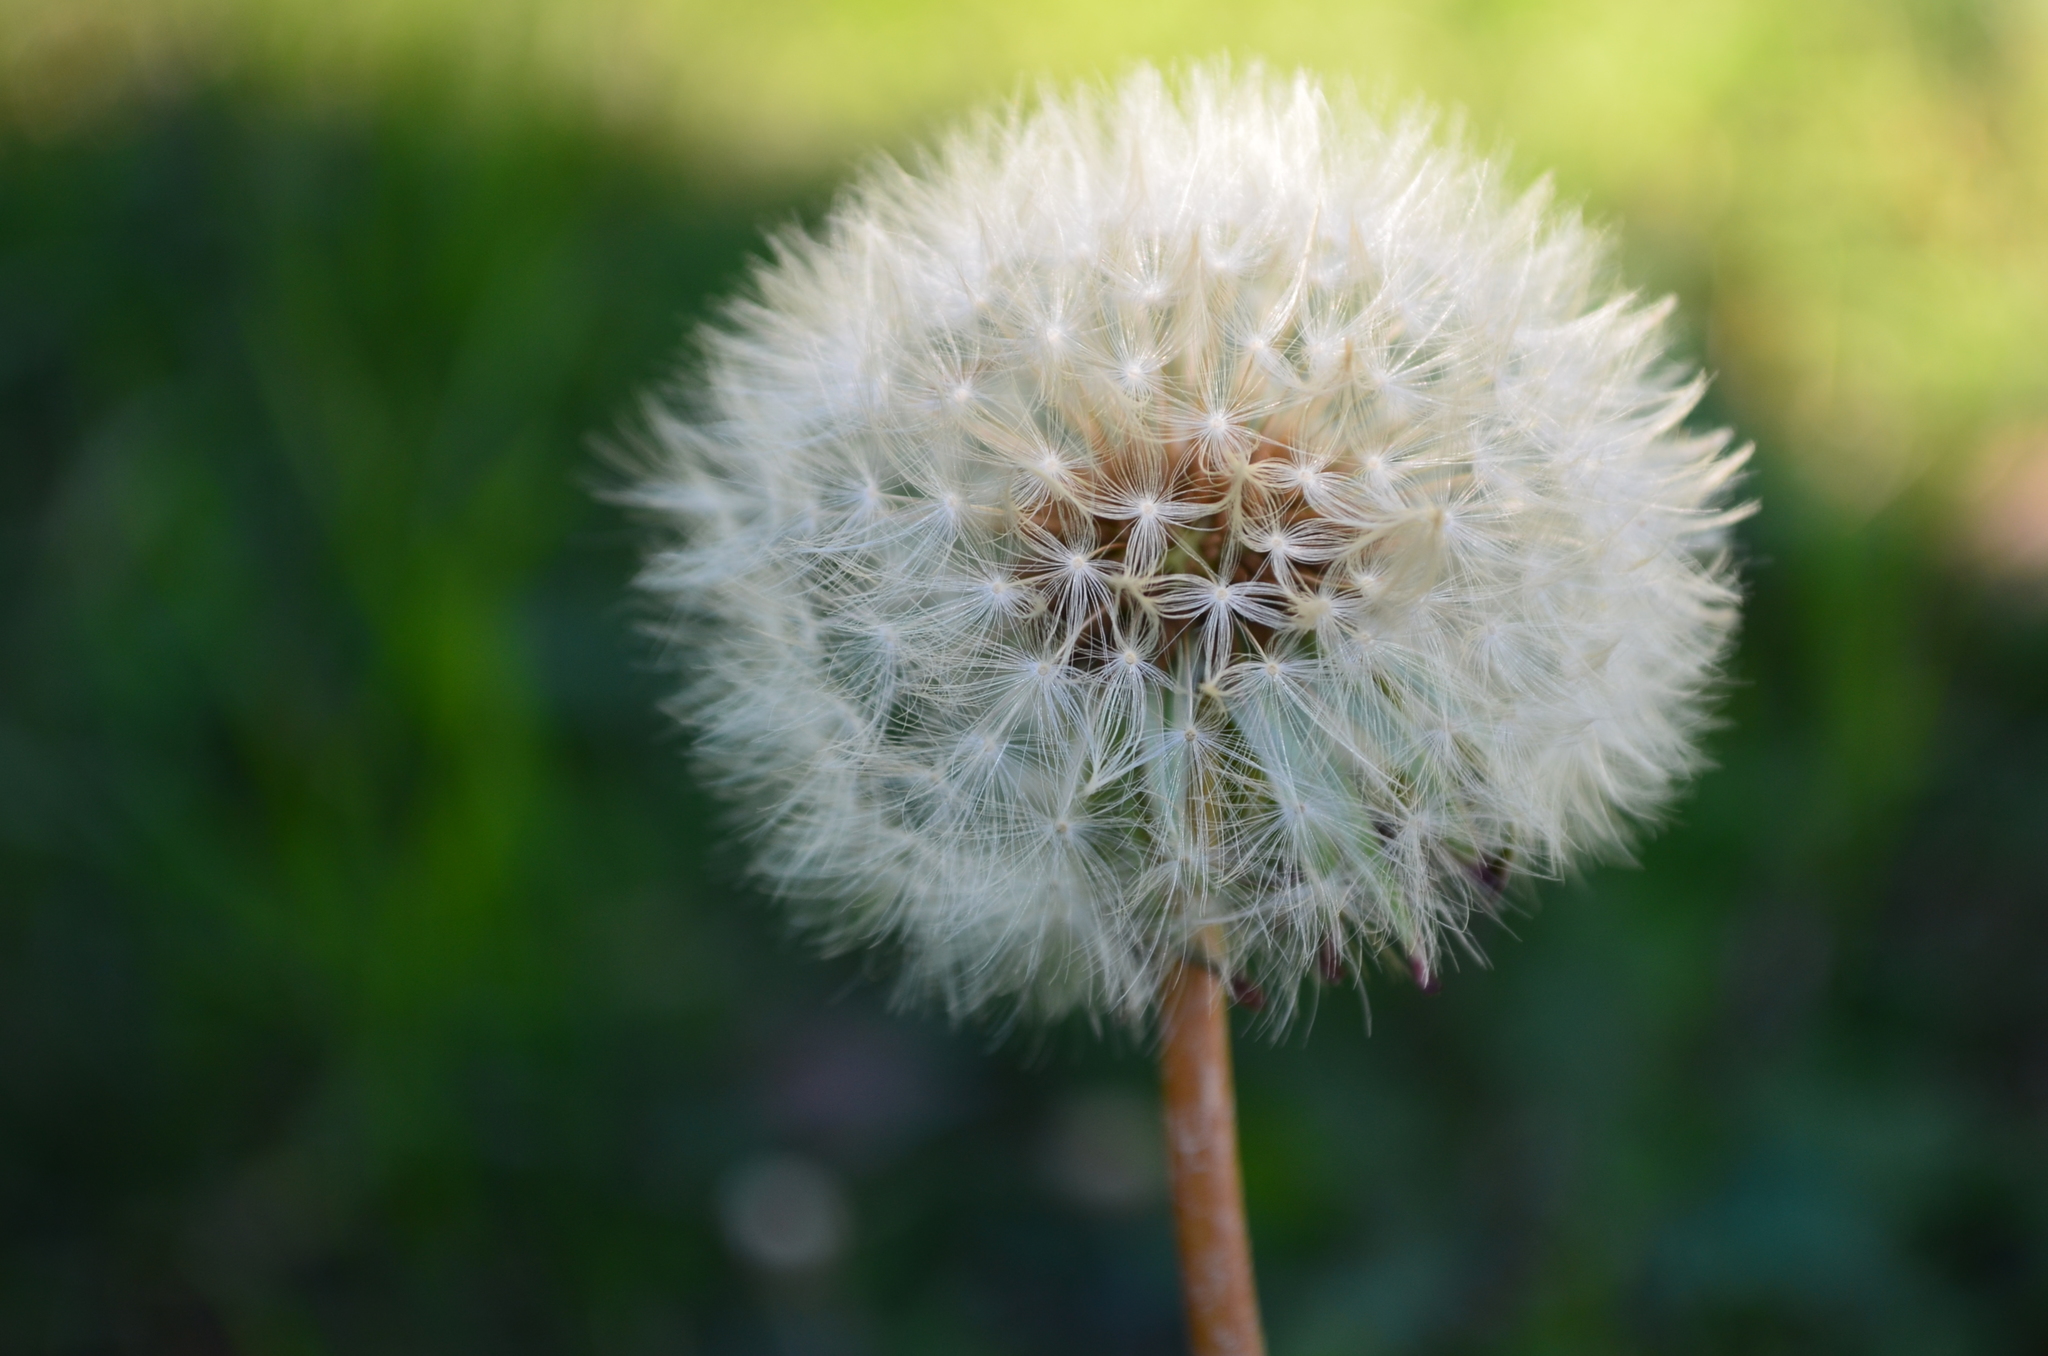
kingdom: Plantae
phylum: Tracheophyta
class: Magnoliopsida
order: Asterales
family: Asteraceae
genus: Taraxacum
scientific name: Taraxacum officinale
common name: Common dandelion
